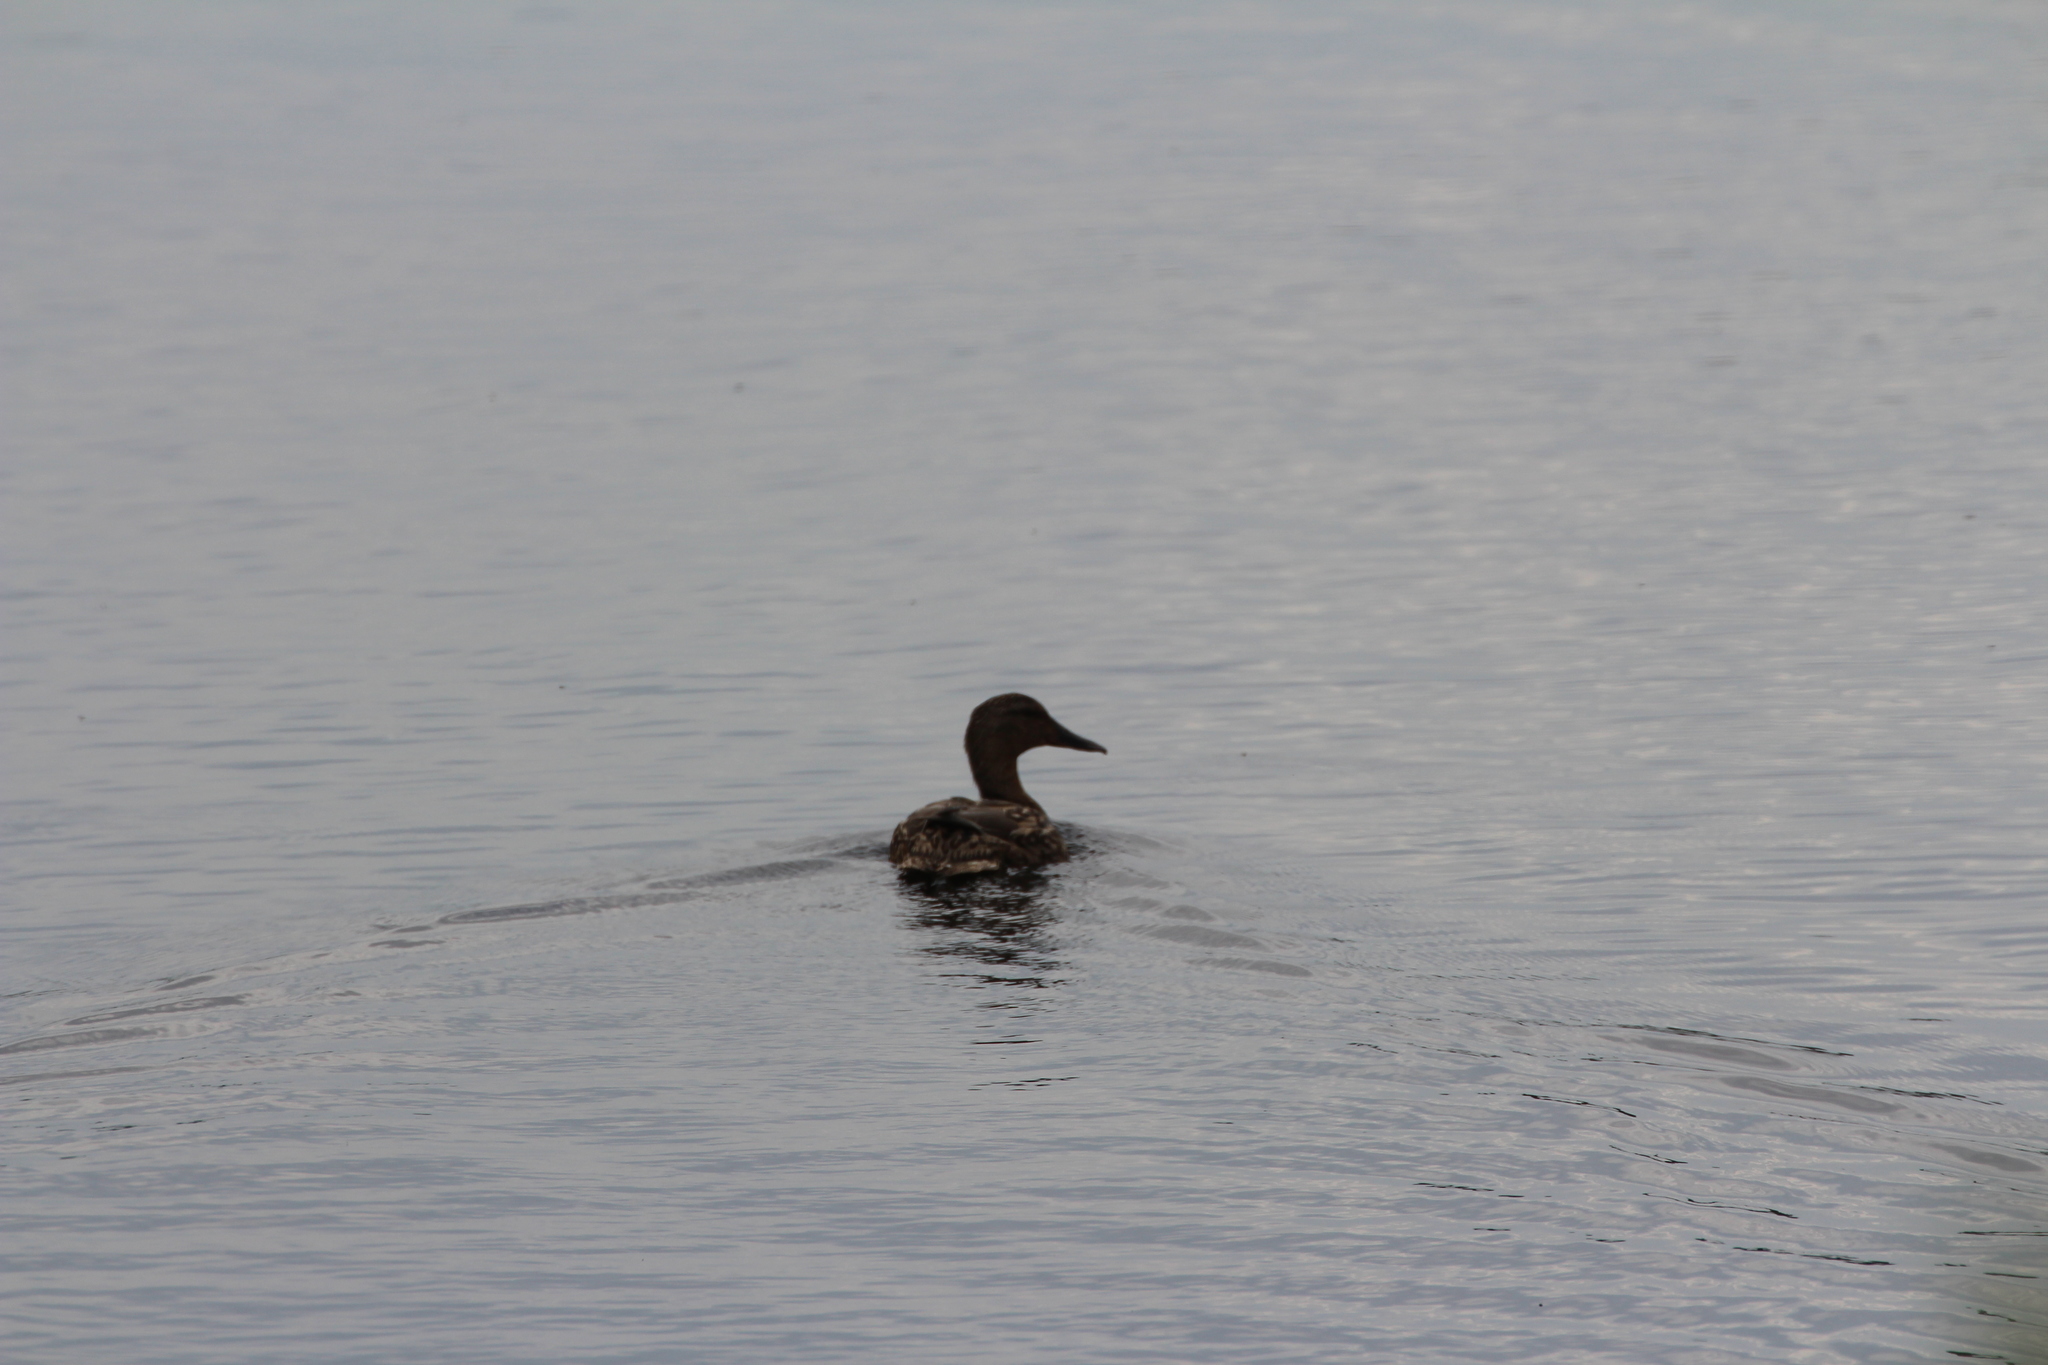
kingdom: Animalia
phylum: Chordata
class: Aves
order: Anseriformes
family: Anatidae
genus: Anas
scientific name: Anas platyrhynchos
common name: Mallard
